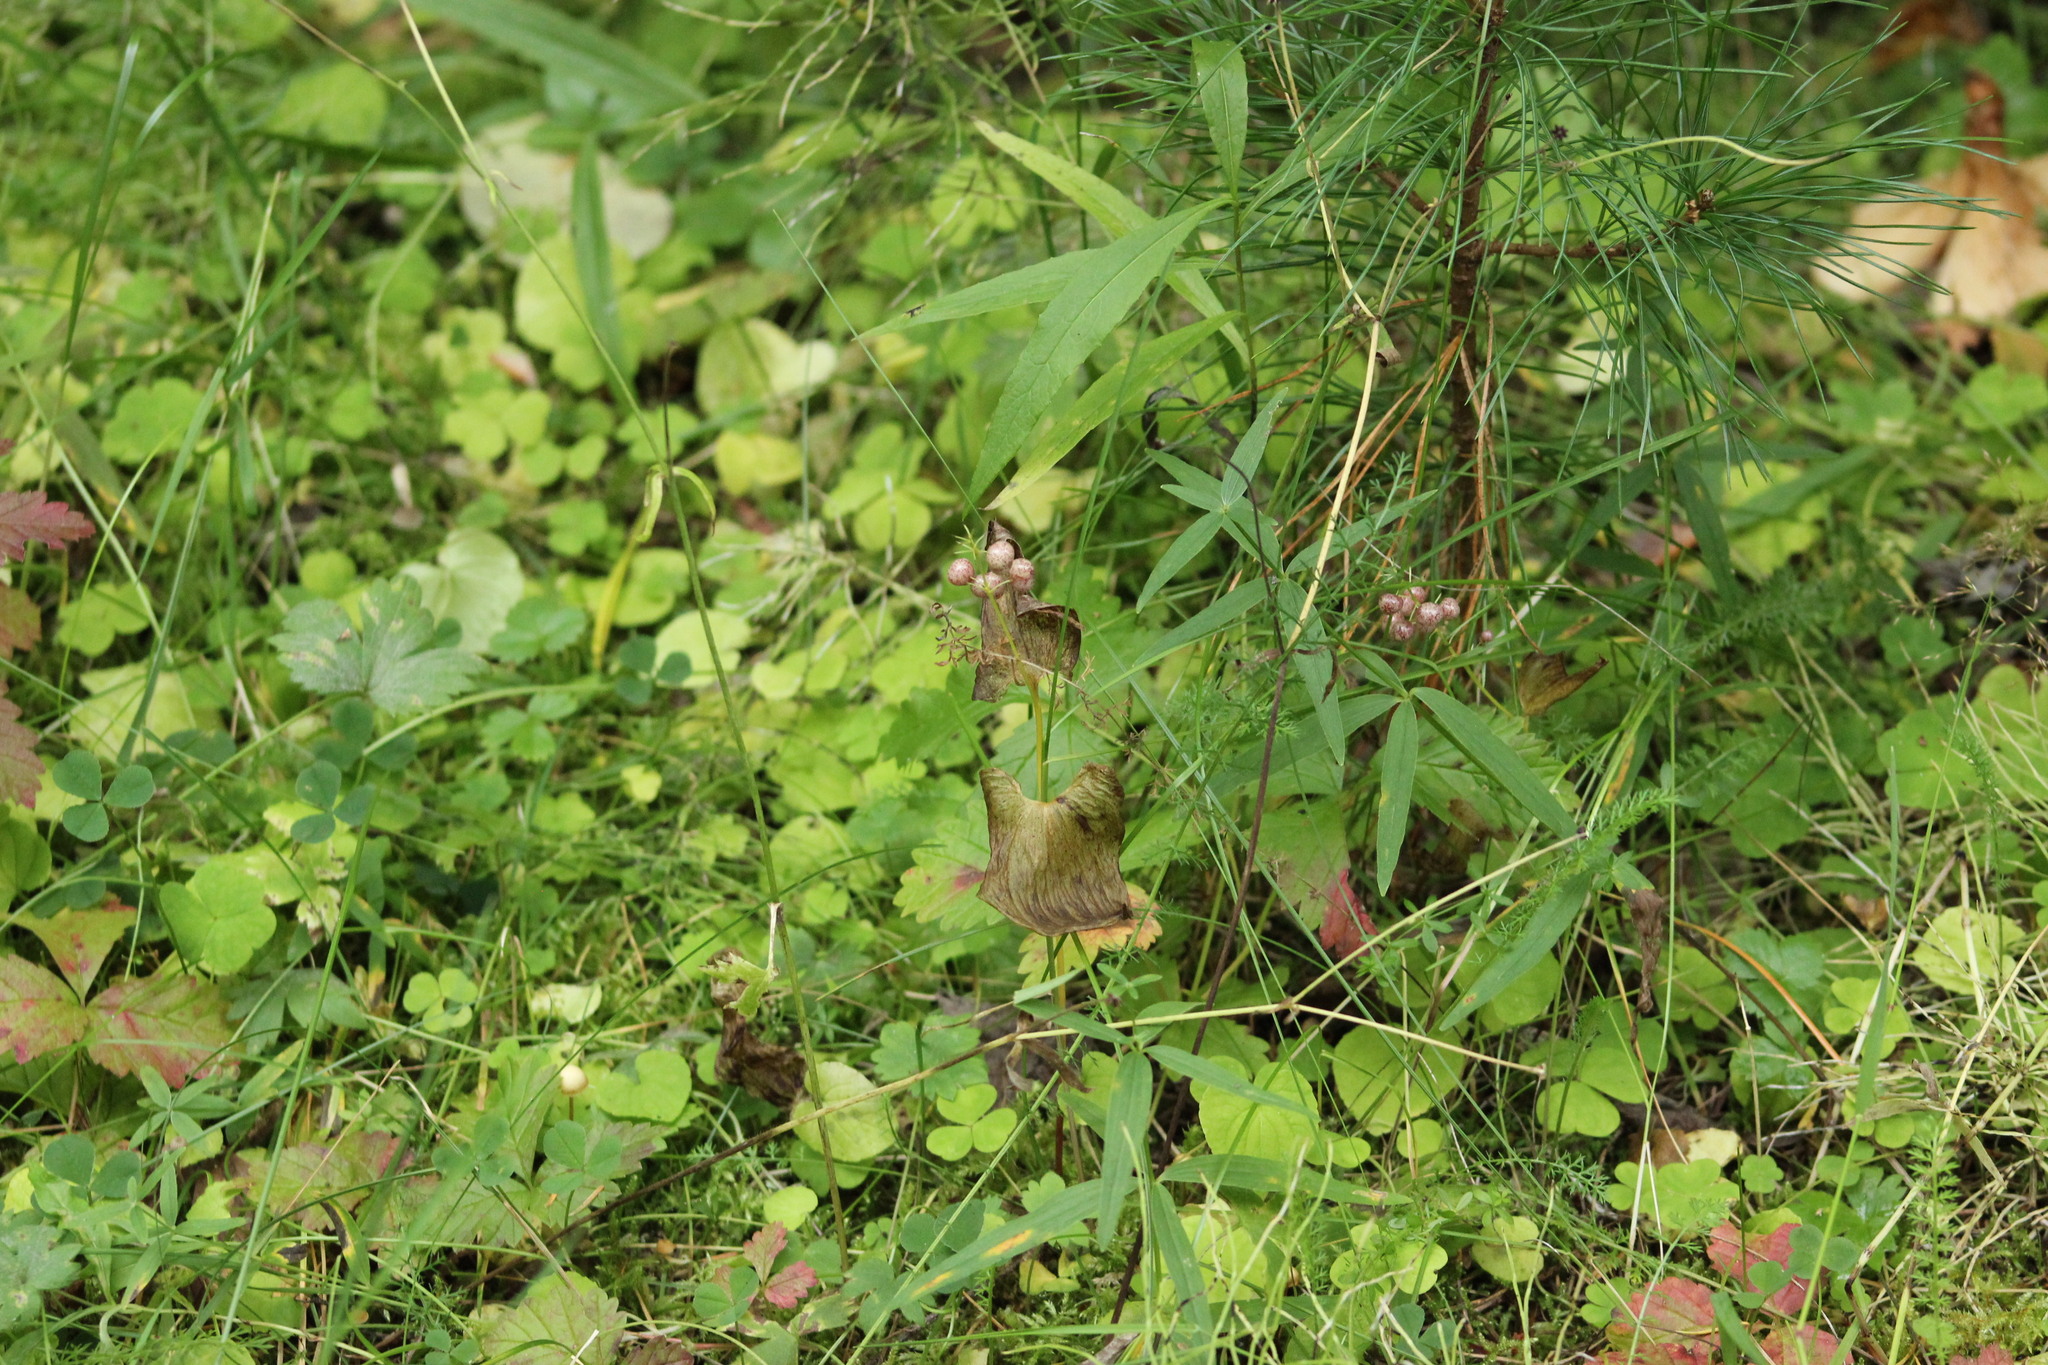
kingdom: Plantae
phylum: Tracheophyta
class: Magnoliopsida
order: Gentianales
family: Rubiaceae
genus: Galium
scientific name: Galium boreale
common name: Northern bedstraw
